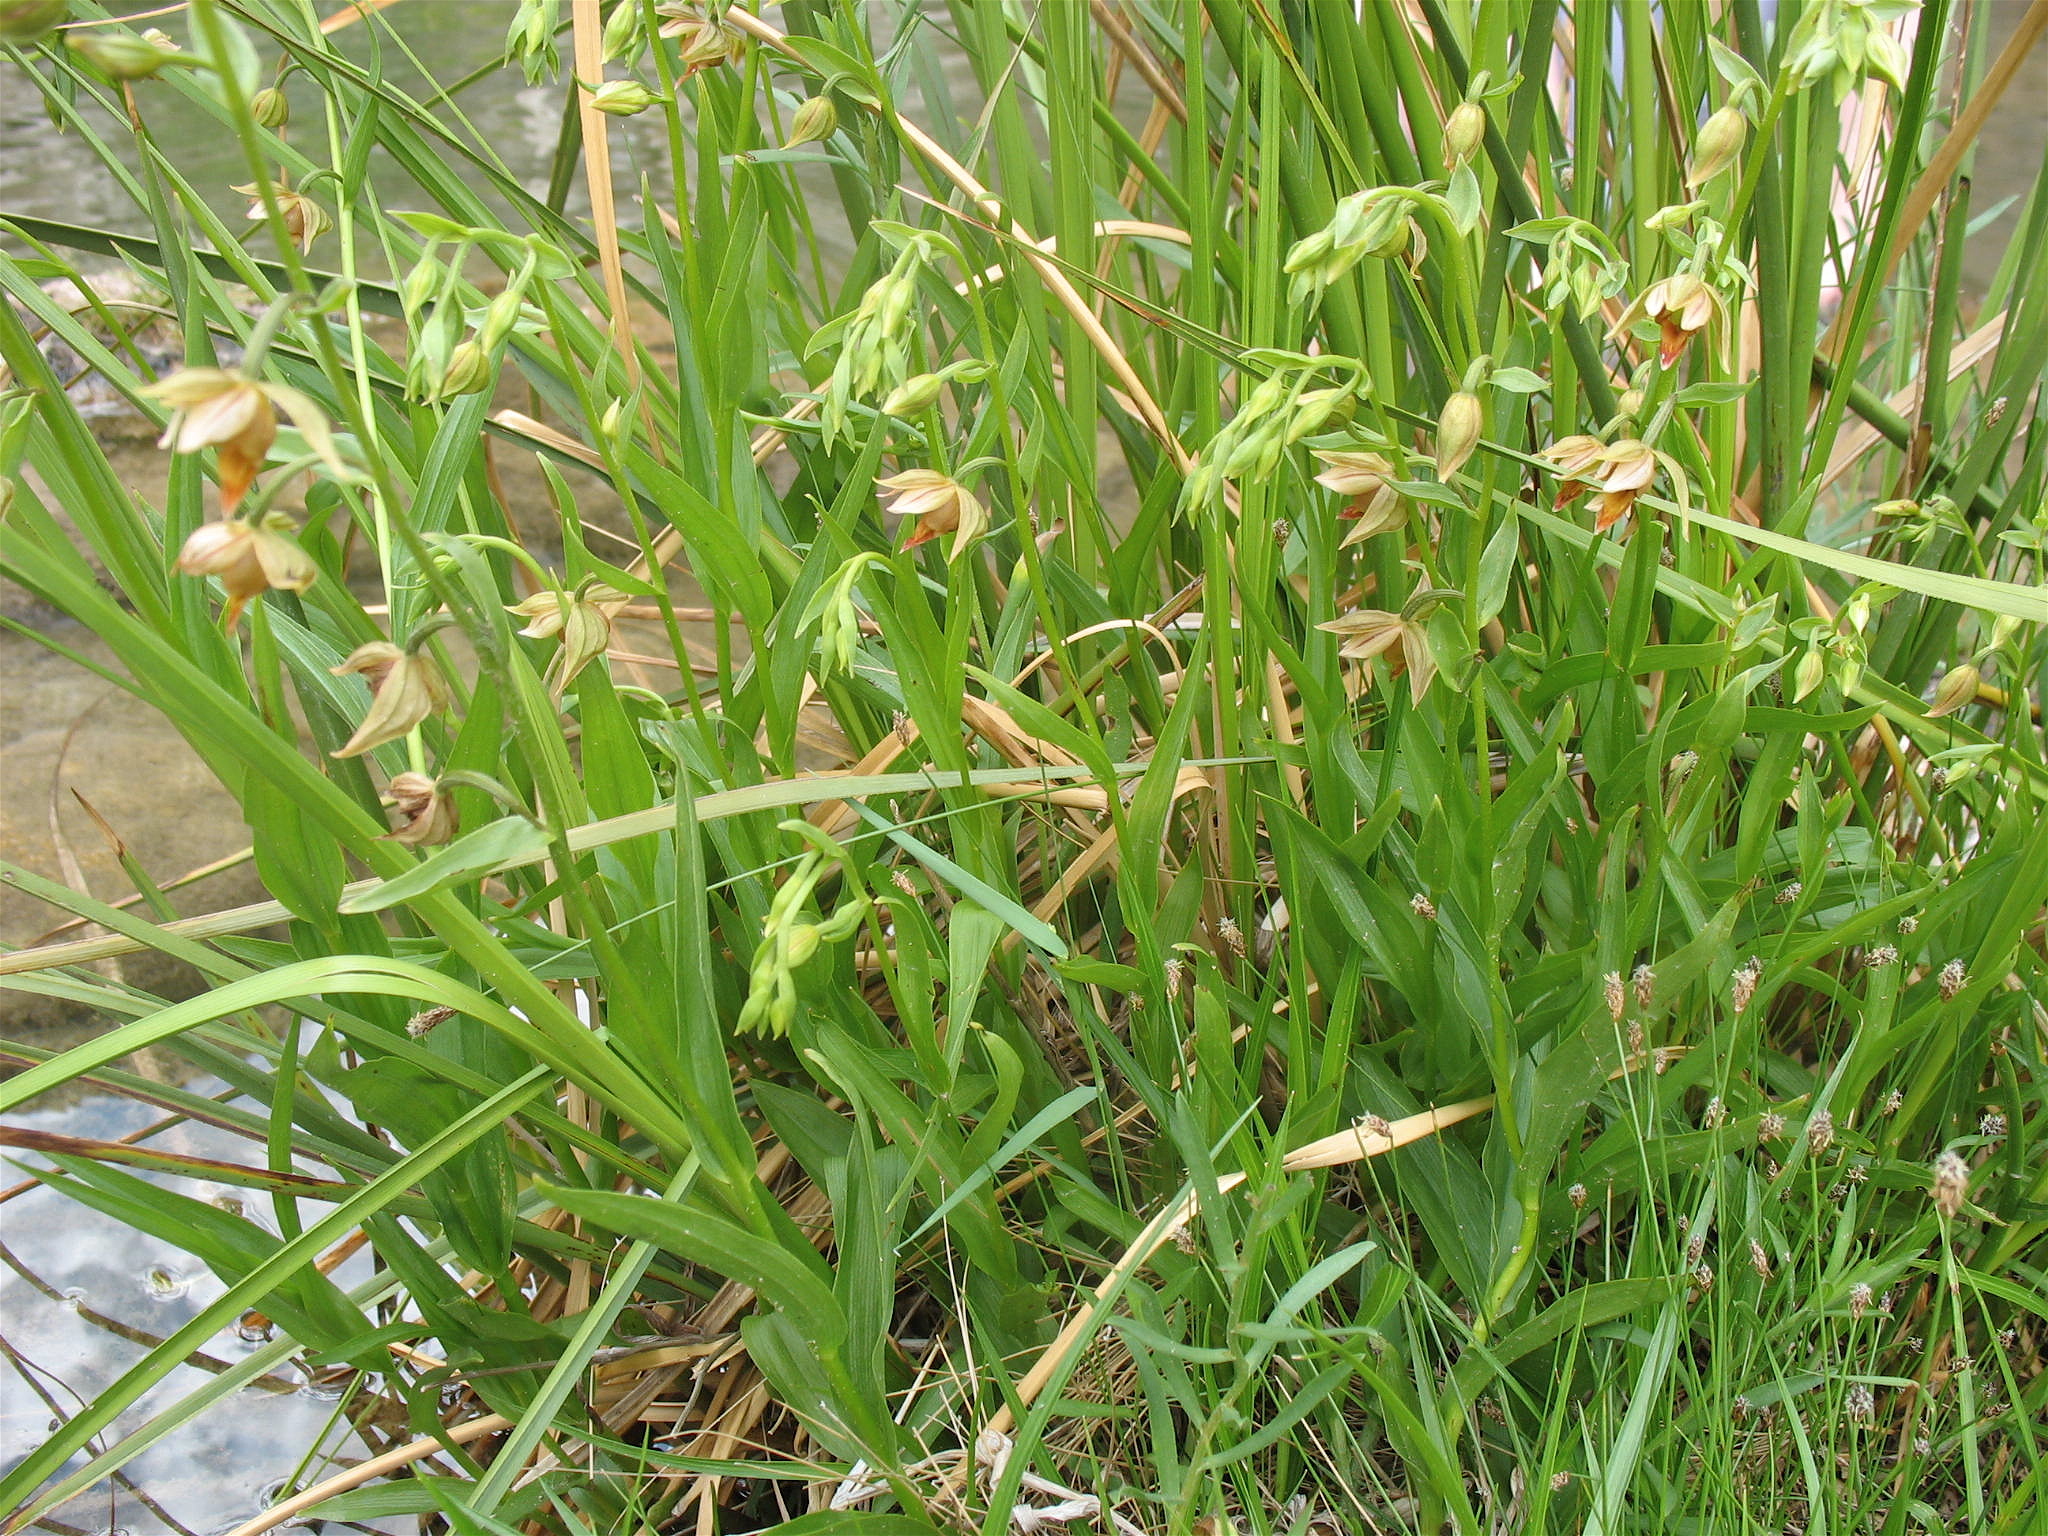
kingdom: Plantae
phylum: Tracheophyta
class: Liliopsida
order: Asparagales
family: Orchidaceae
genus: Epipactis
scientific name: Epipactis gigantea
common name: Chatterbox
